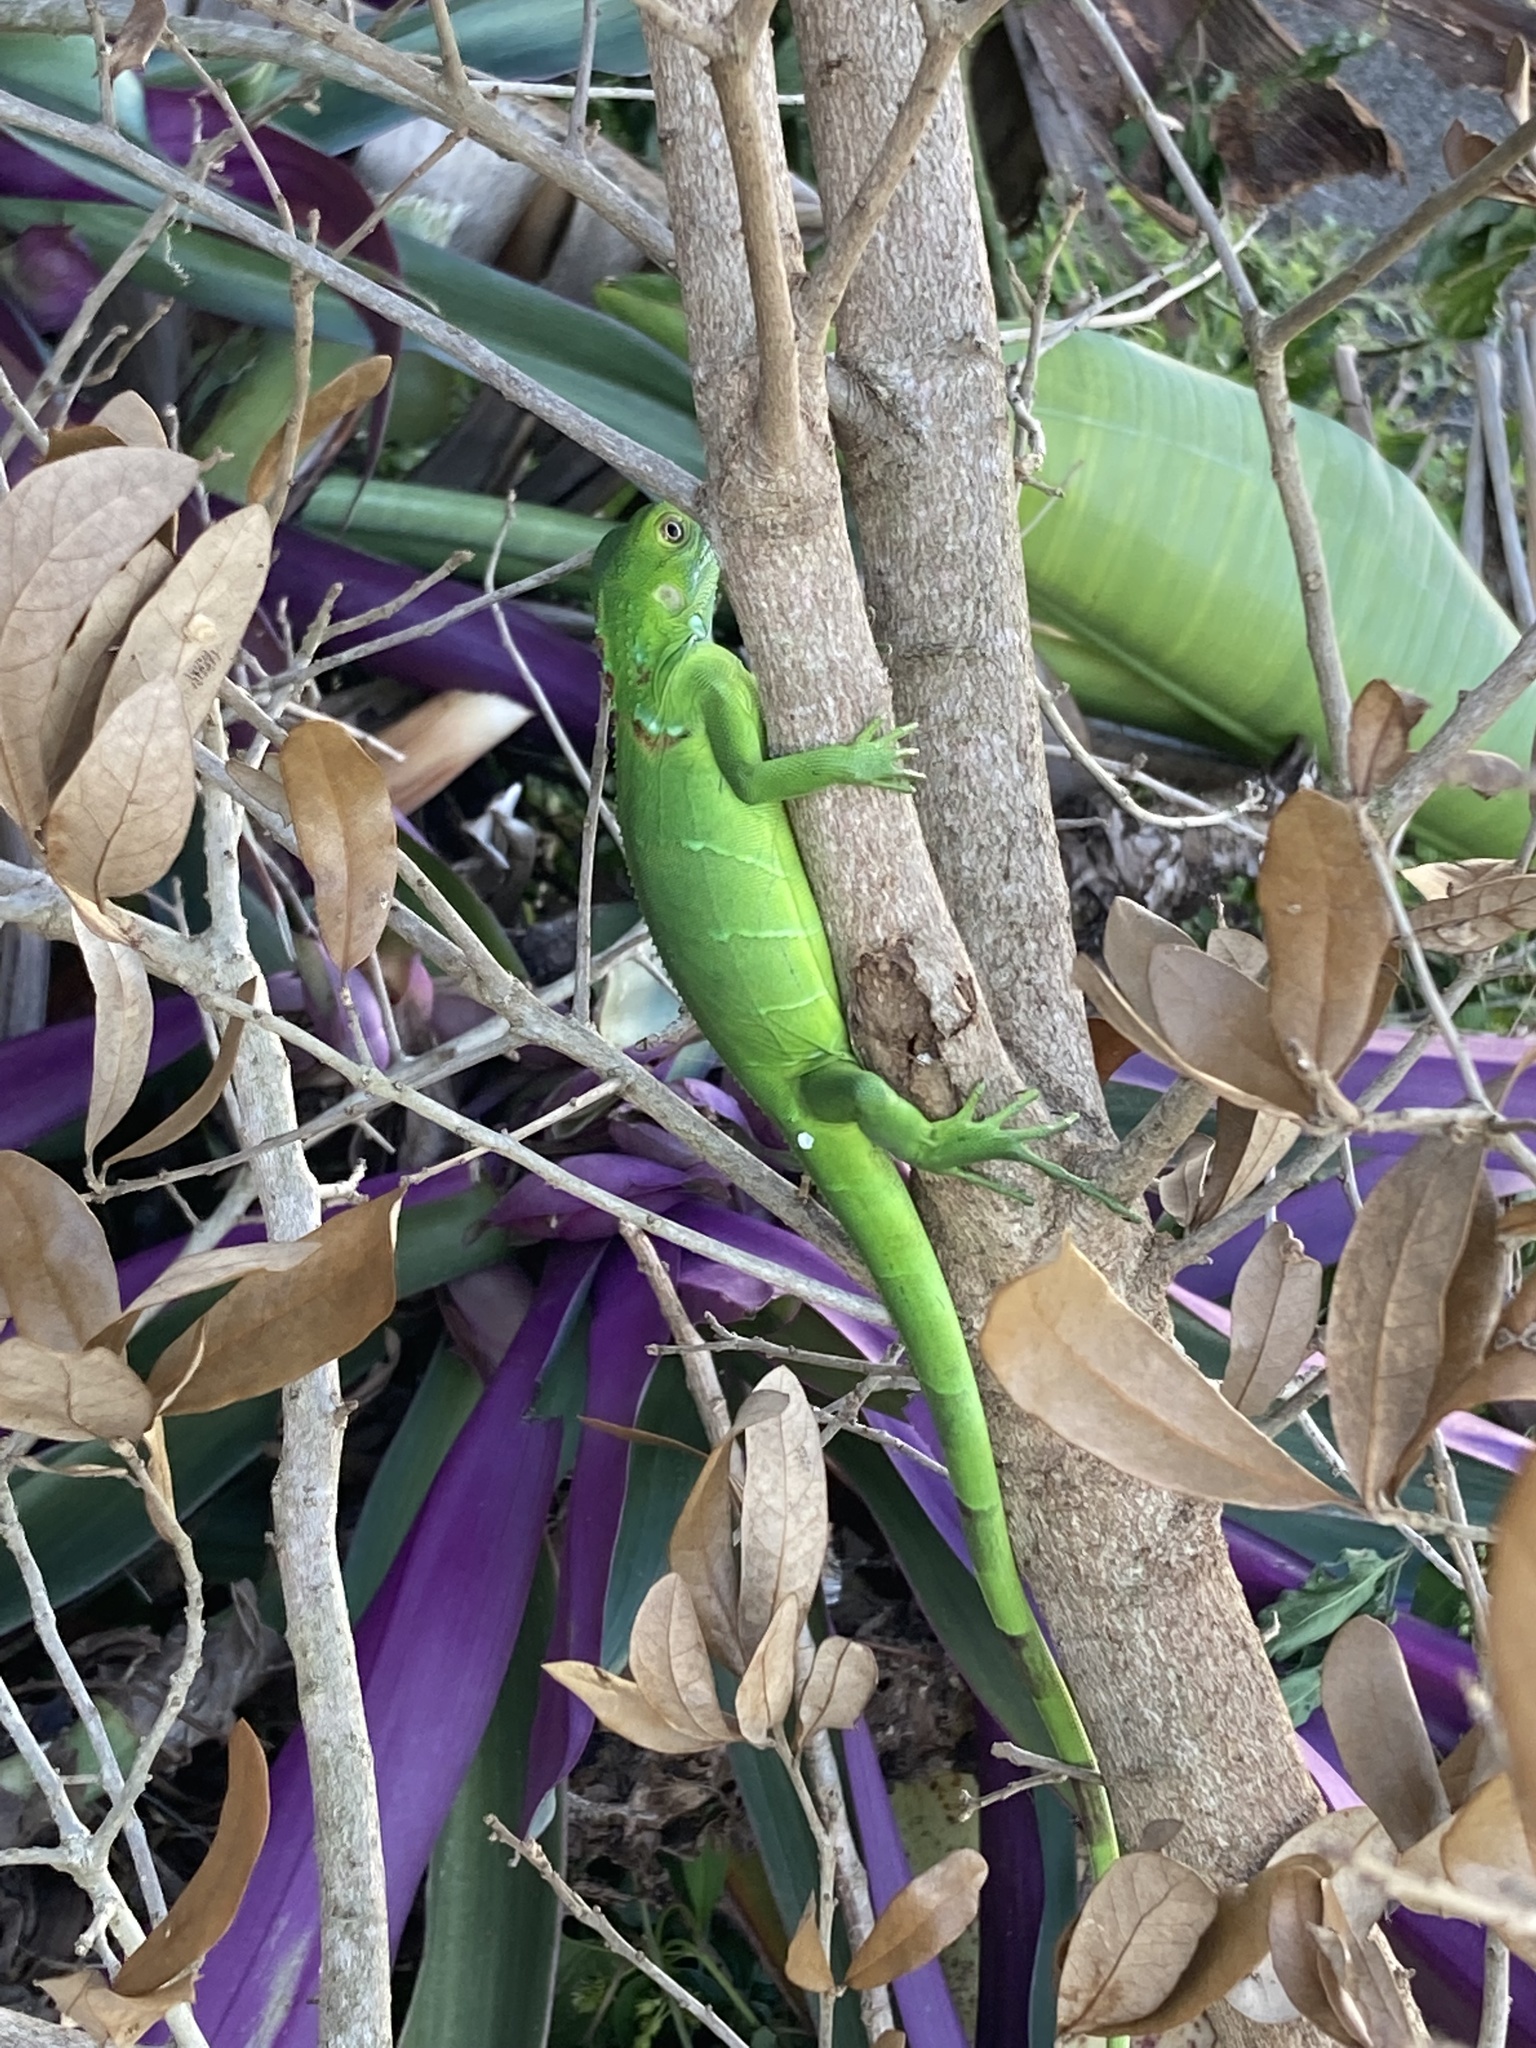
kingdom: Animalia
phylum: Chordata
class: Squamata
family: Iguanidae
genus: Iguana
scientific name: Iguana iguana
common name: Green iguana
